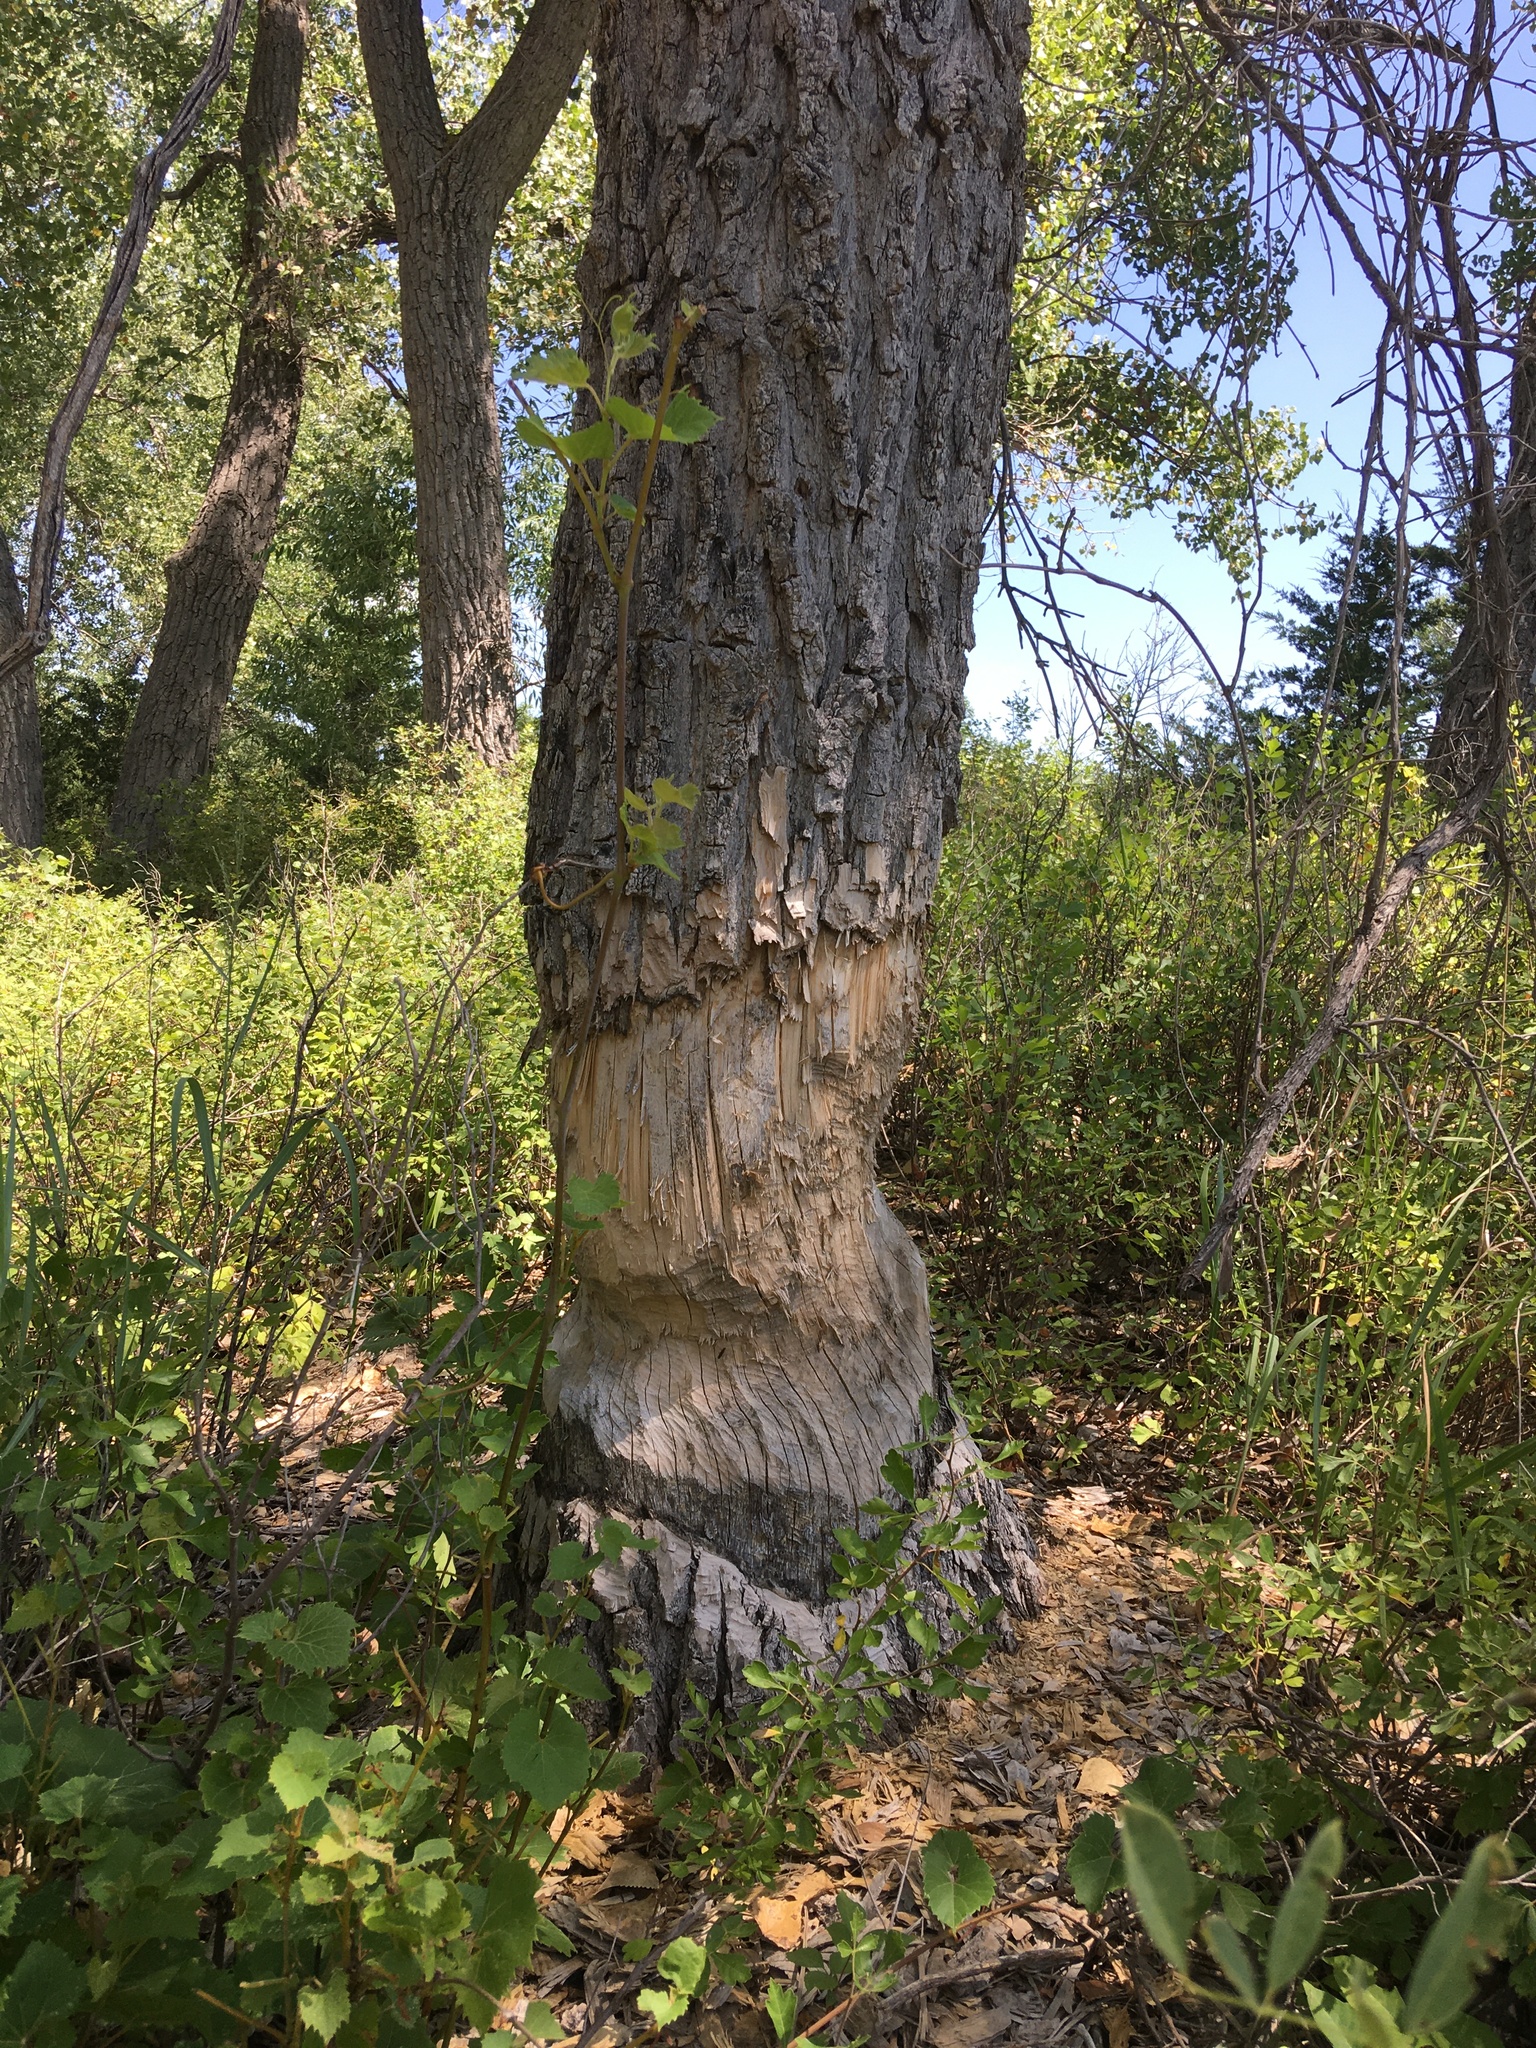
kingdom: Animalia
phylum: Chordata
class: Mammalia
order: Rodentia
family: Castoridae
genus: Castor
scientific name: Castor canadensis
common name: American beaver
